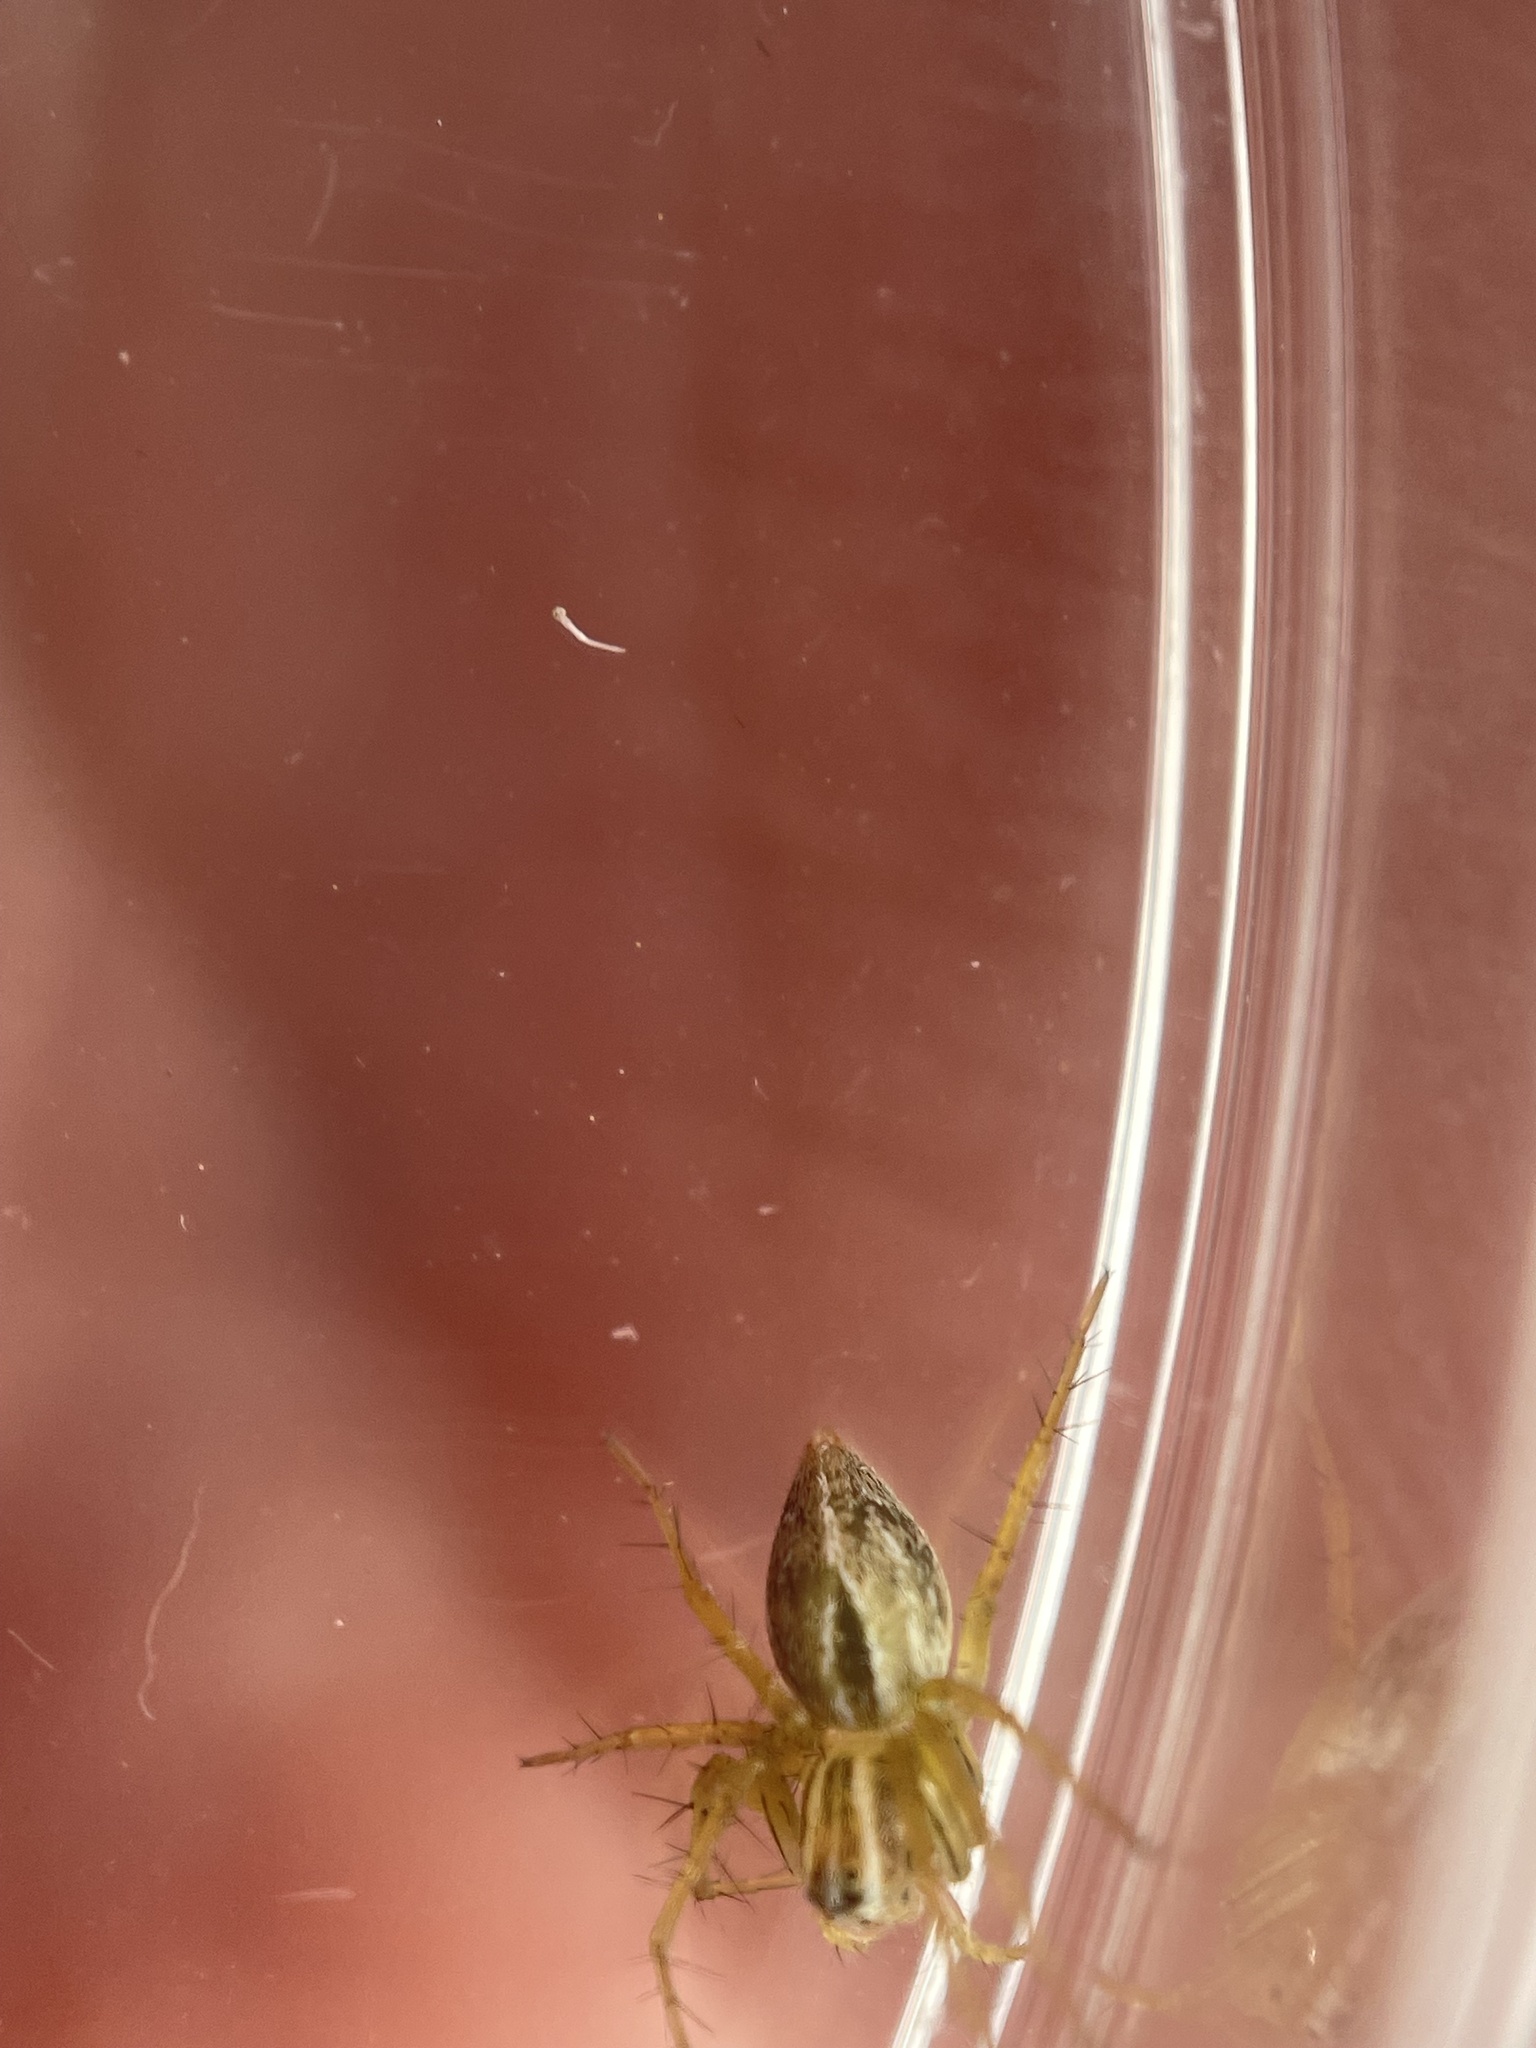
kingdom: Animalia
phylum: Arthropoda
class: Arachnida
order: Araneae
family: Oxyopidae
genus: Oxyopes
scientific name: Oxyopes salticus
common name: Lynx spiders
